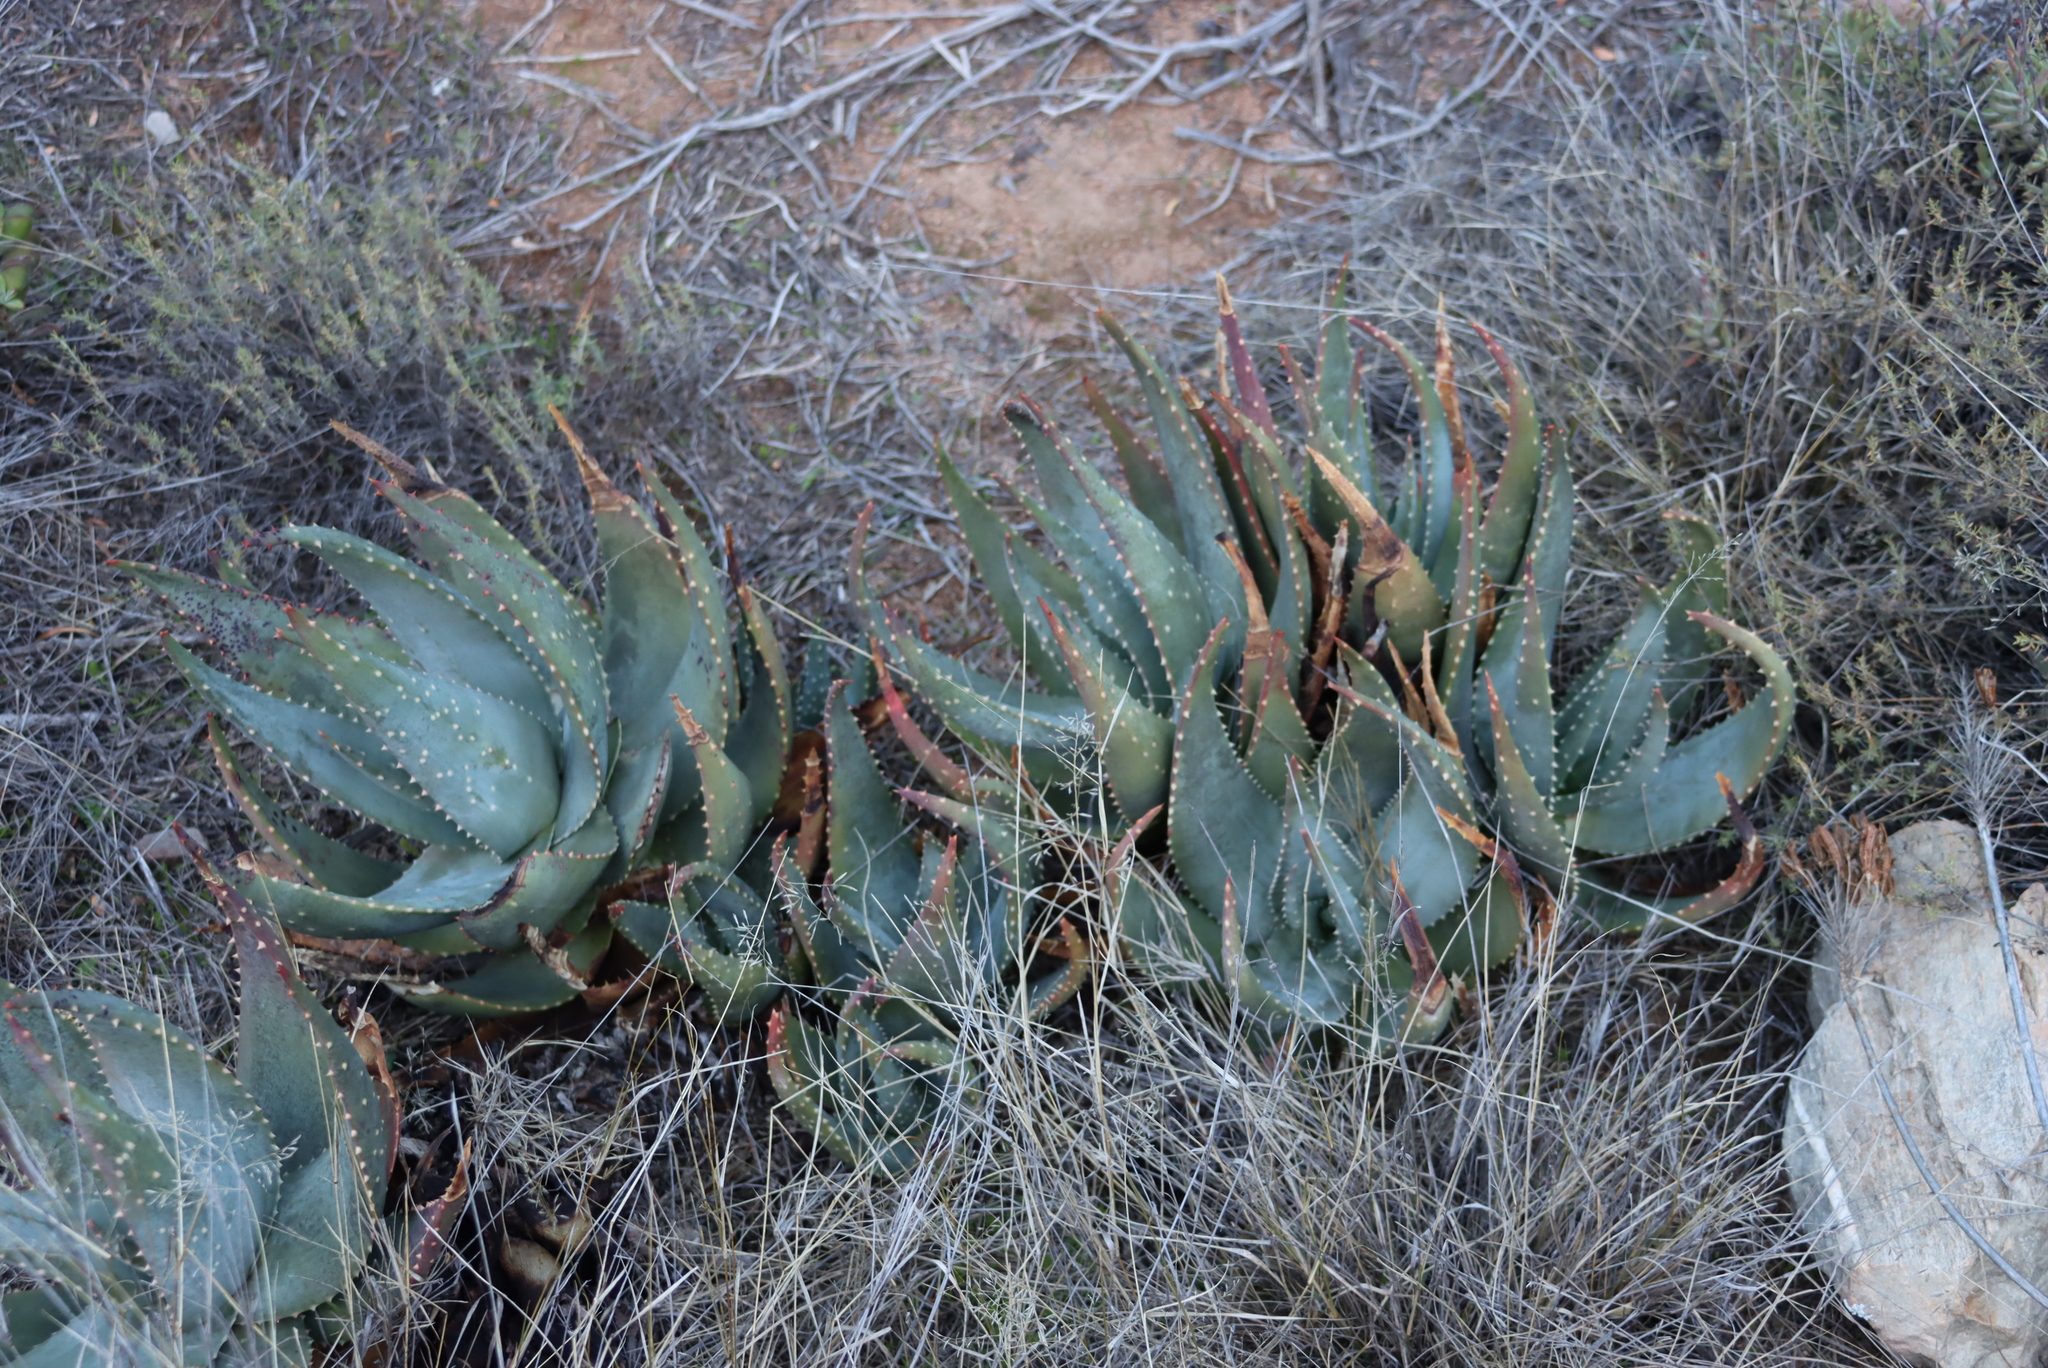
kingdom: Plantae
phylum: Tracheophyta
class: Liliopsida
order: Asparagales
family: Asphodelaceae
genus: Aloe
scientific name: Aloe comptonii
